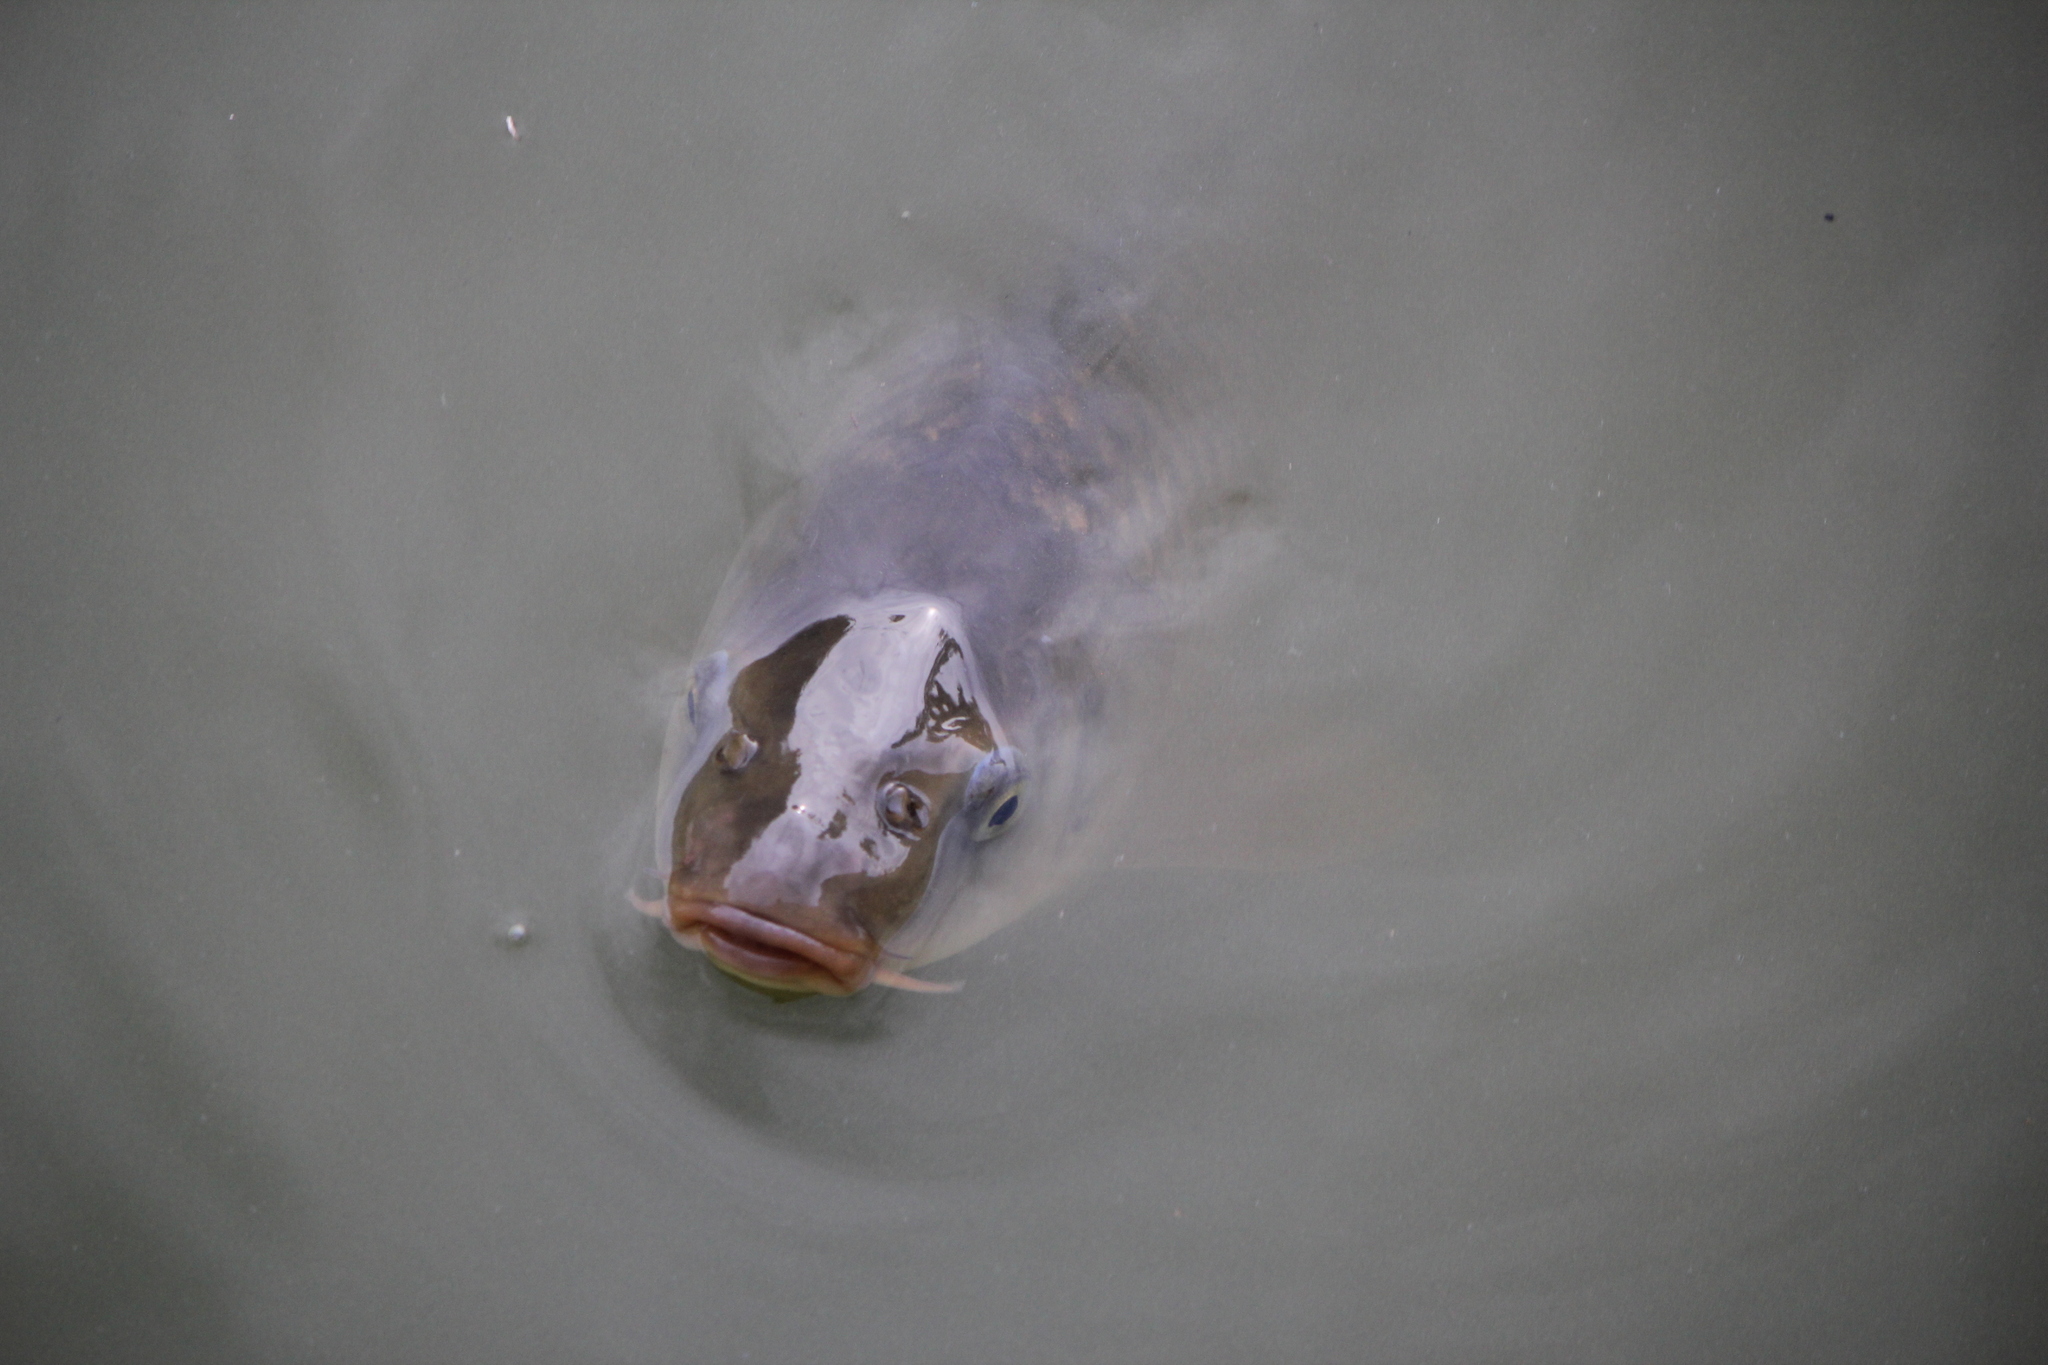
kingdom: Animalia
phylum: Chordata
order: Cypriniformes
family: Cyprinidae
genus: Cyprinus
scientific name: Cyprinus carpio
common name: Common carp
